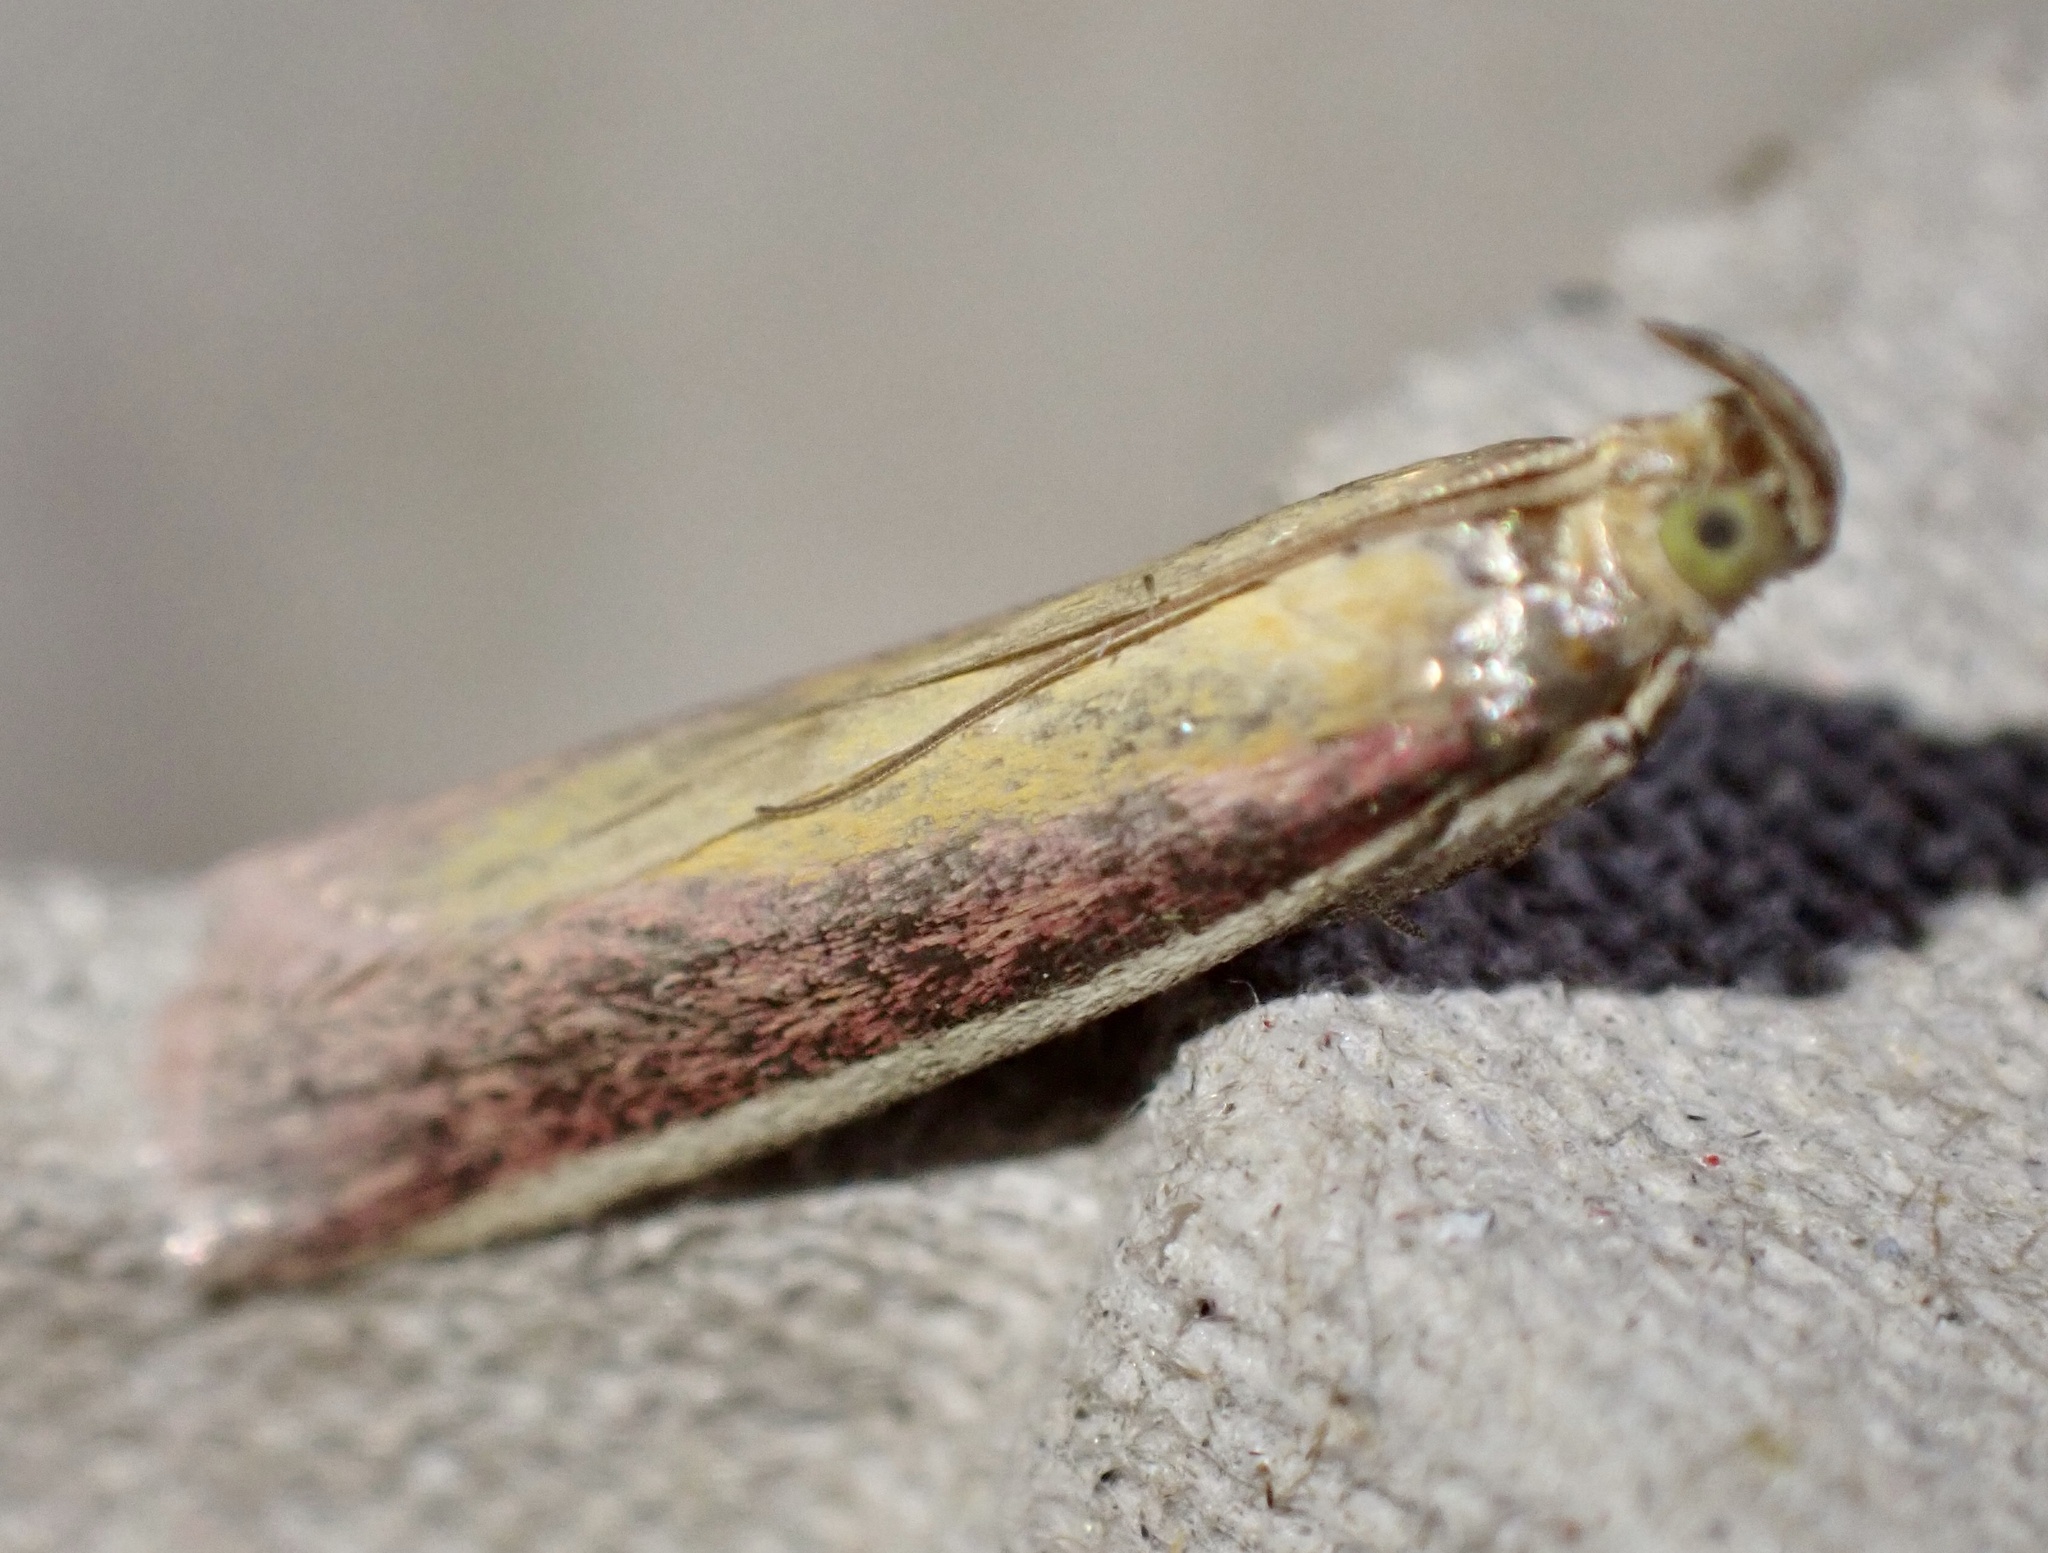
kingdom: Animalia
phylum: Arthropoda
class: Insecta
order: Lepidoptera
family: Pyralidae
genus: Oncocera
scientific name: Oncocera semirubella
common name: Rosy-striped knot-horn
